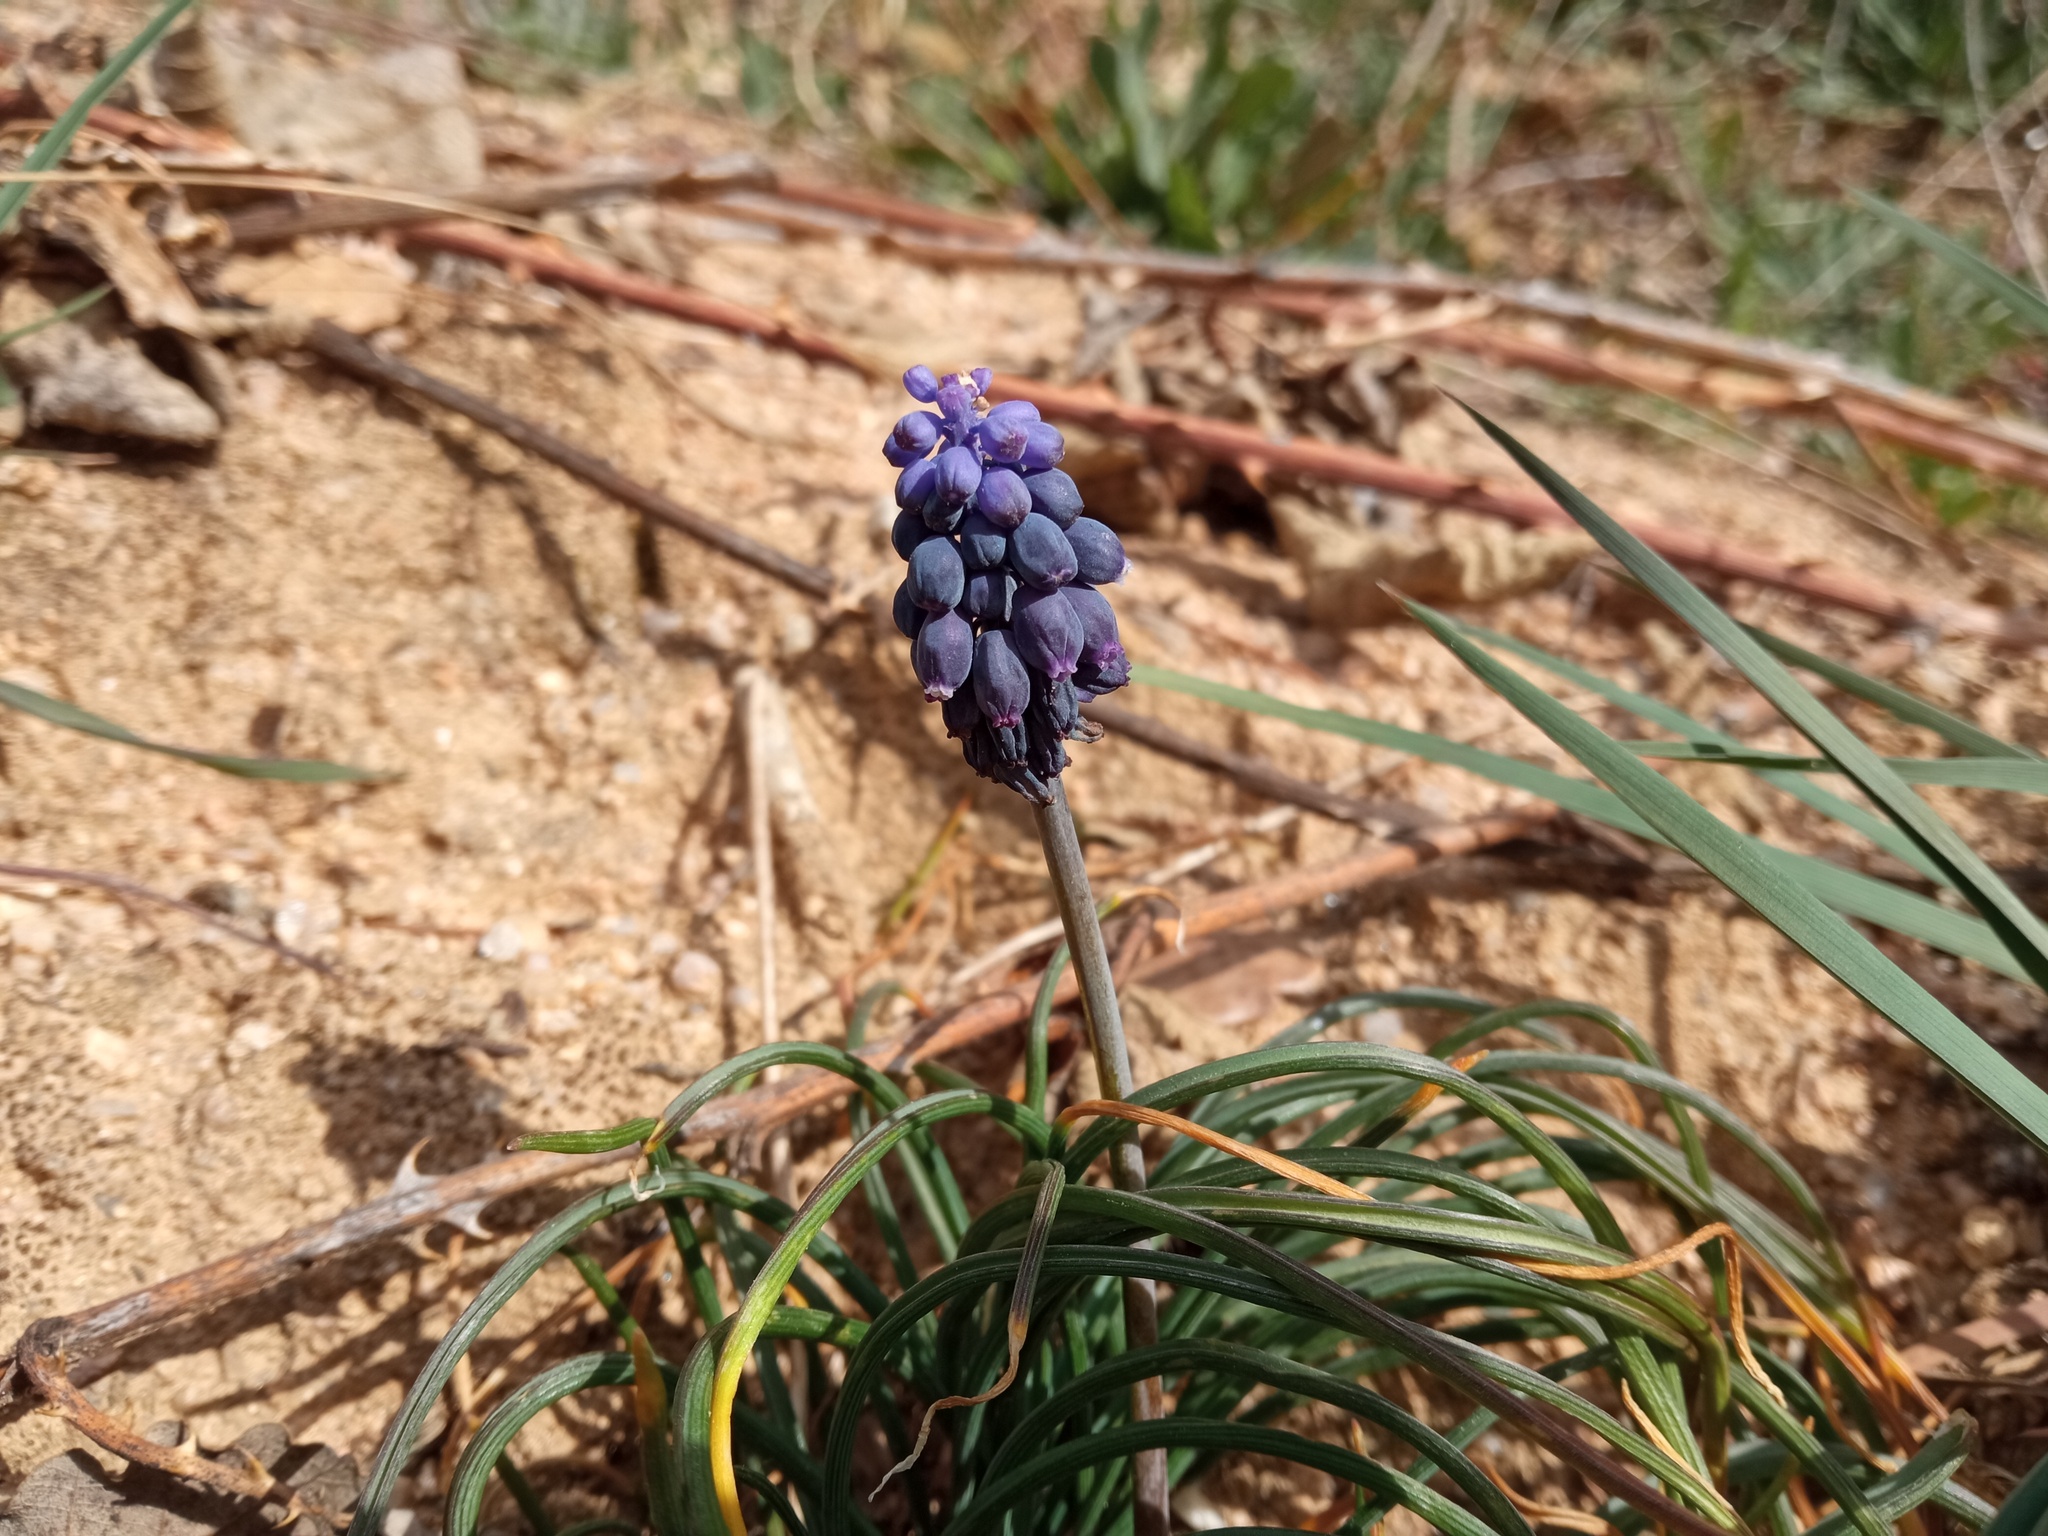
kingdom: Plantae
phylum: Tracheophyta
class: Liliopsida
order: Asparagales
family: Asparagaceae
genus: Muscari
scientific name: Muscari neglectum
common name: Grape-hyacinth
